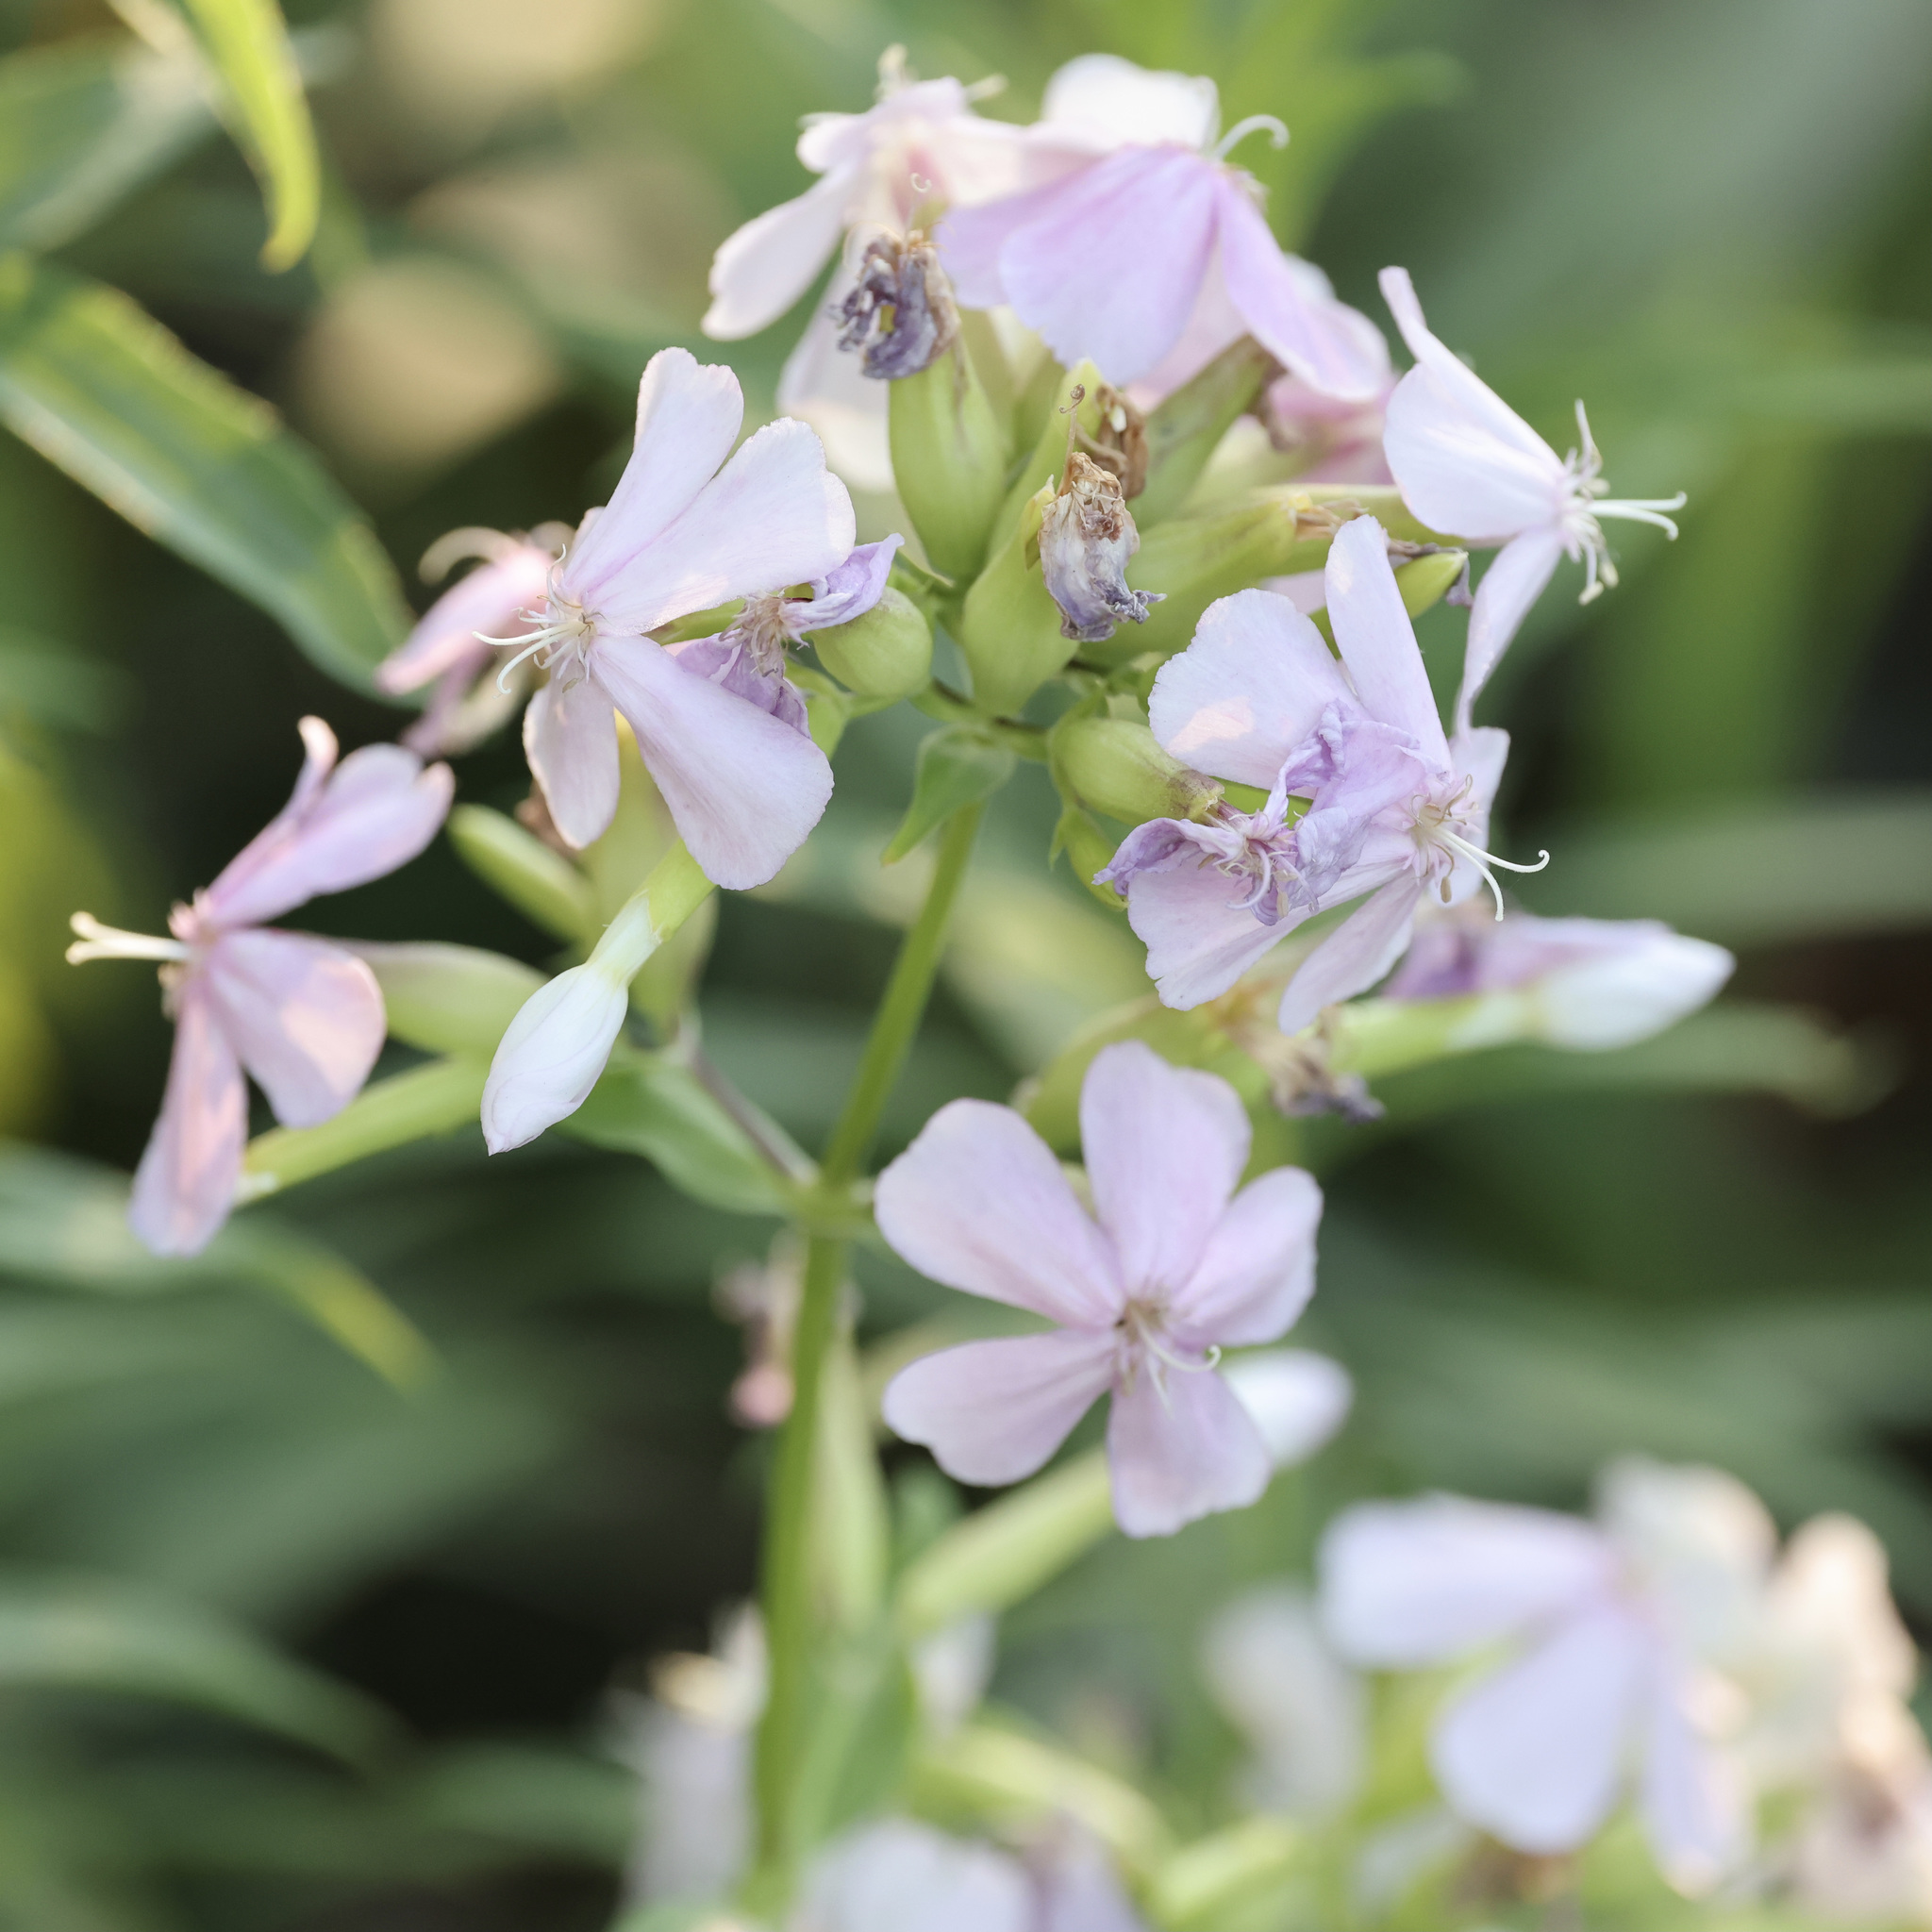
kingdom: Plantae
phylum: Tracheophyta
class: Magnoliopsida
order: Caryophyllales
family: Caryophyllaceae
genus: Saponaria
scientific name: Saponaria officinalis
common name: Soapwort
